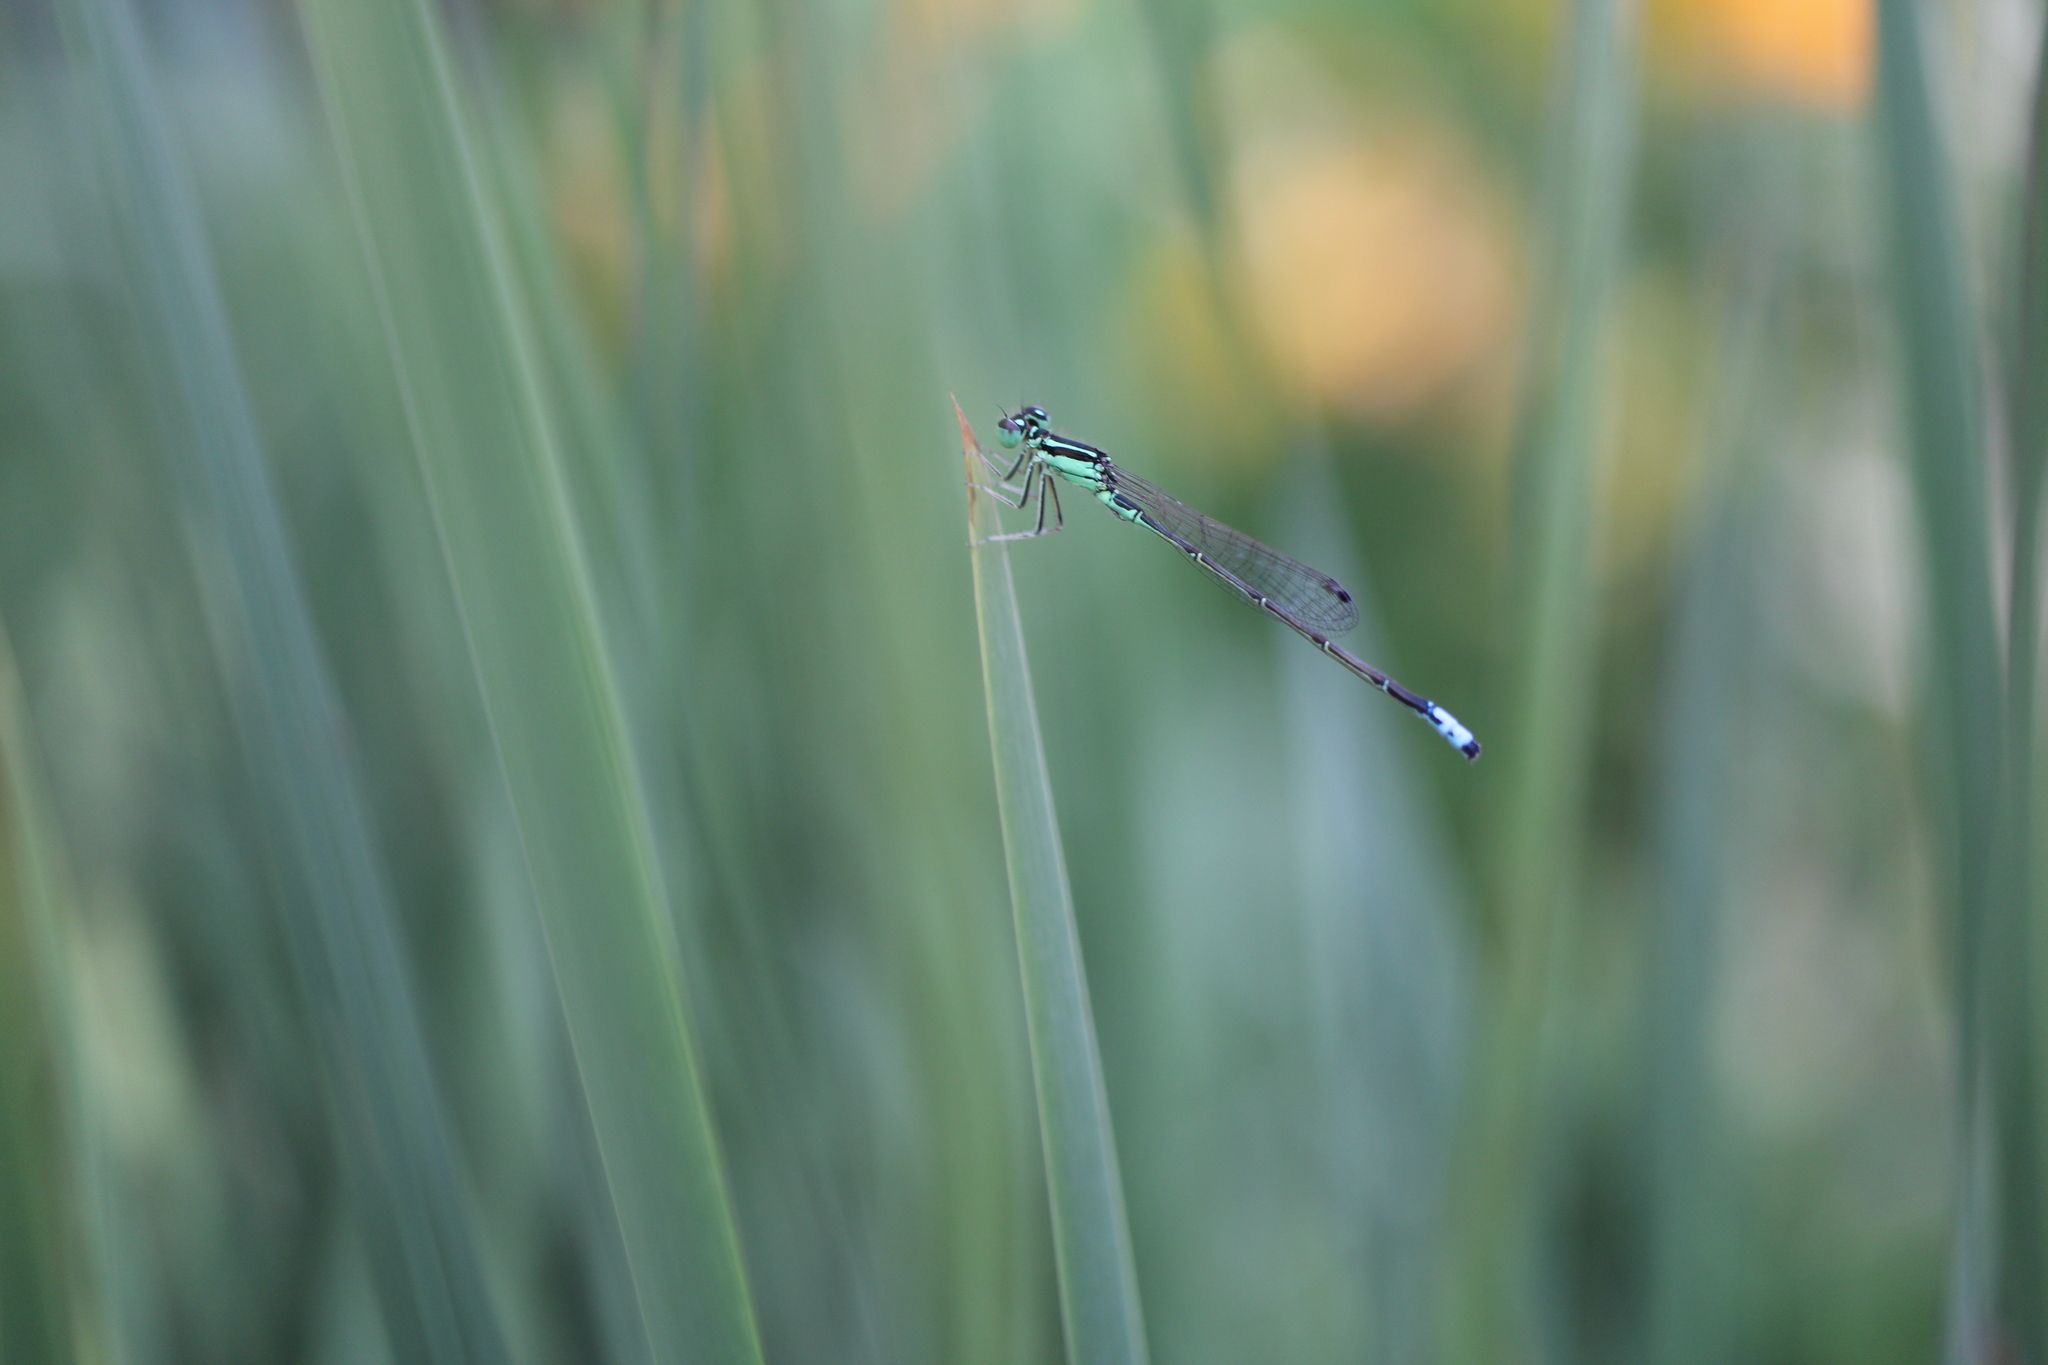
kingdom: Animalia
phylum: Arthropoda
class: Insecta
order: Odonata
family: Coenagrionidae
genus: Ischnura
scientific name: Ischnura verticalis
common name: Eastern forktail
